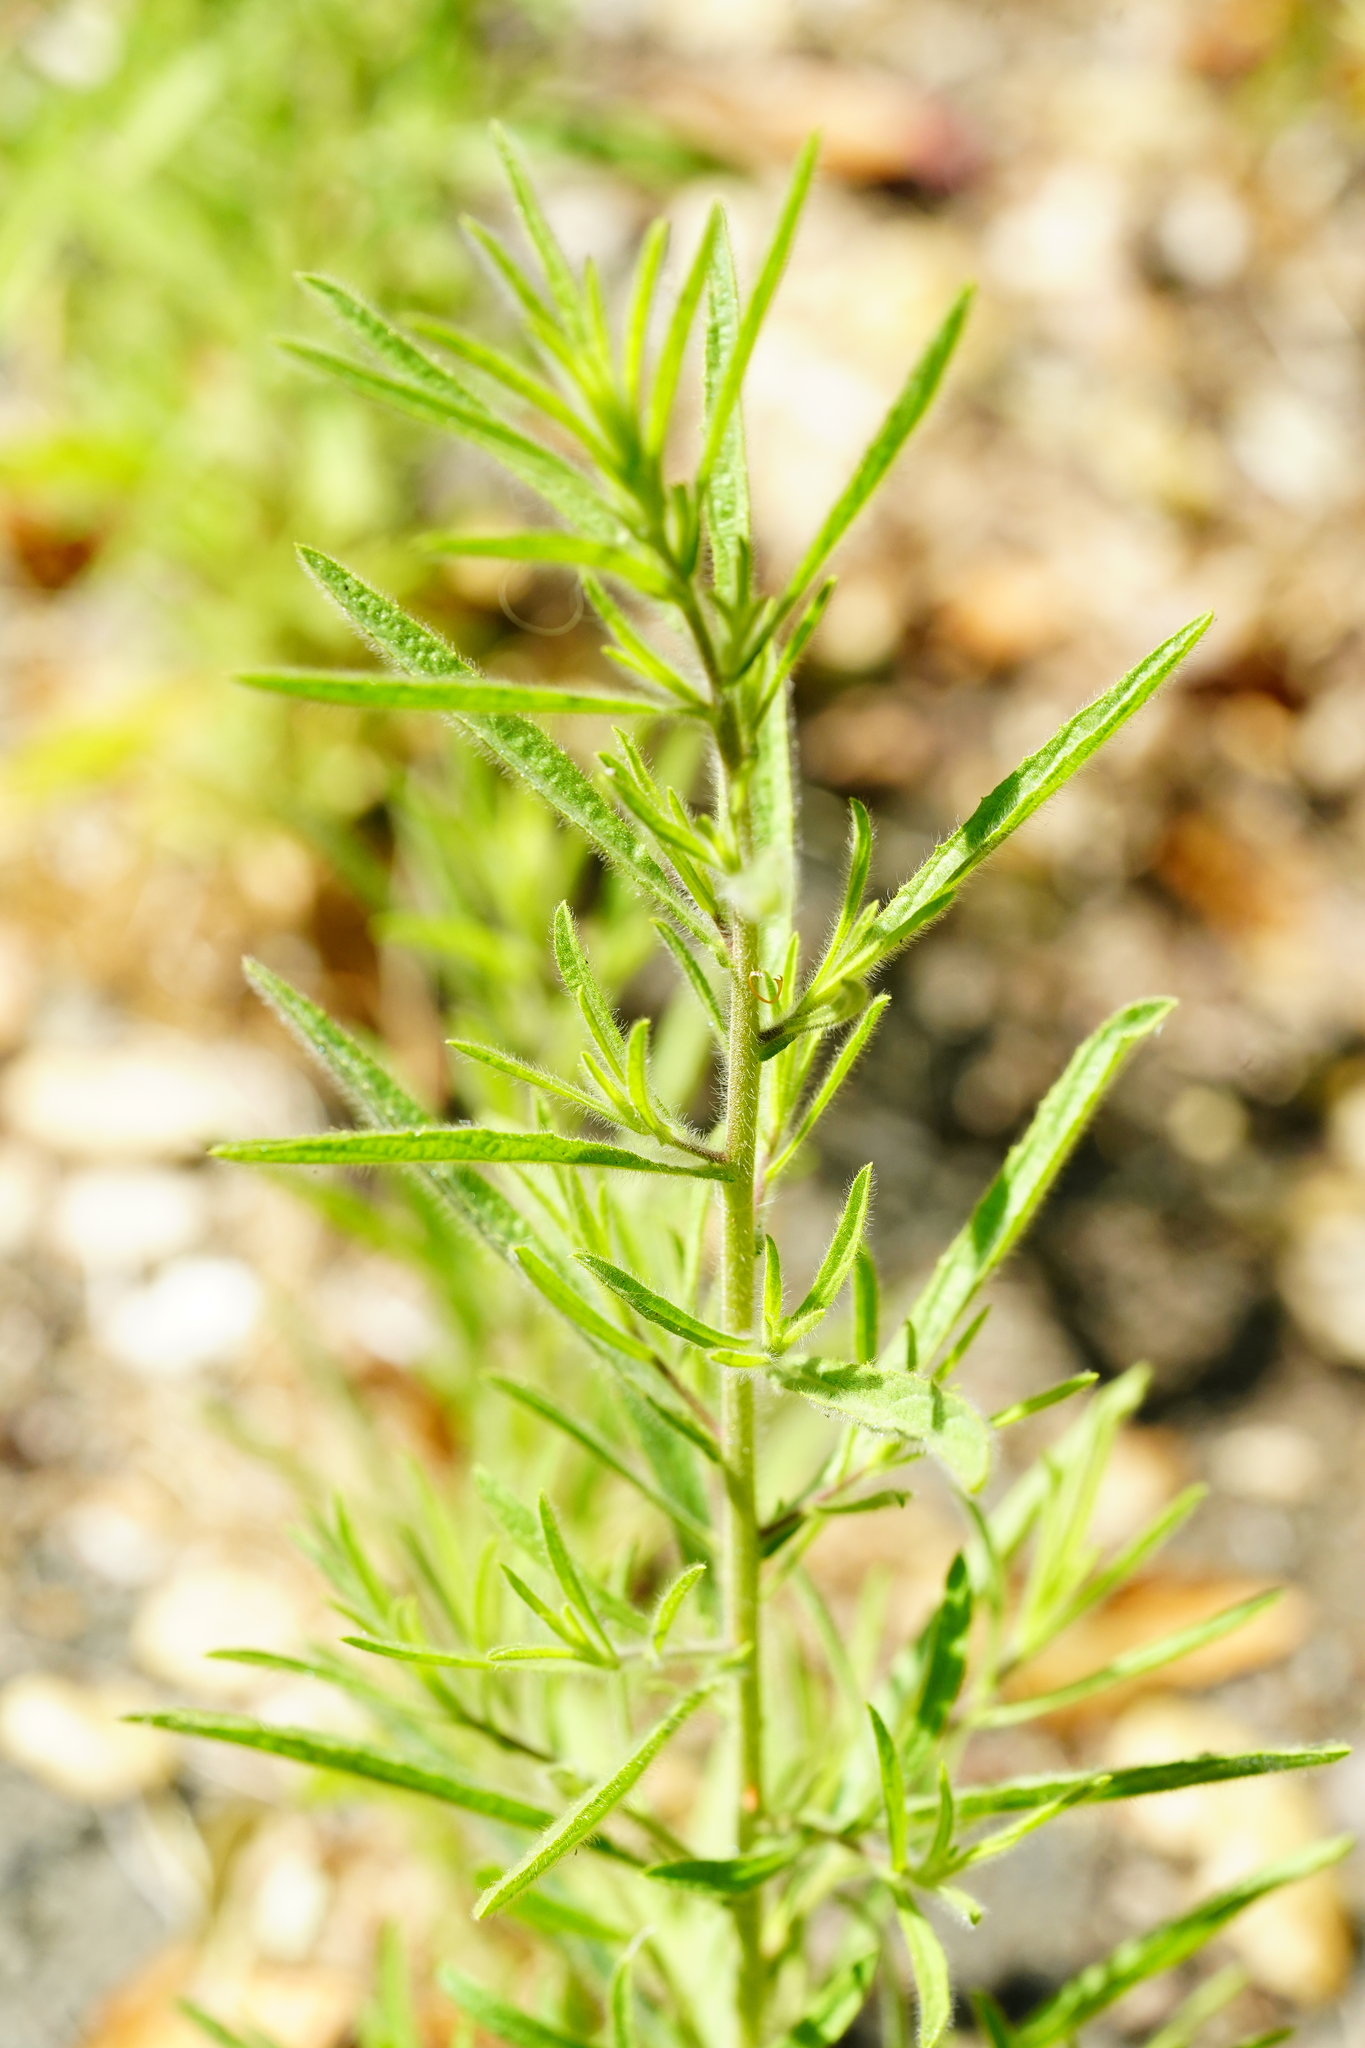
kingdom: Plantae
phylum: Tracheophyta
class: Magnoliopsida
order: Asterales
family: Asteraceae
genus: Dittrichia
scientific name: Dittrichia graveolens
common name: Stinking fleabane
